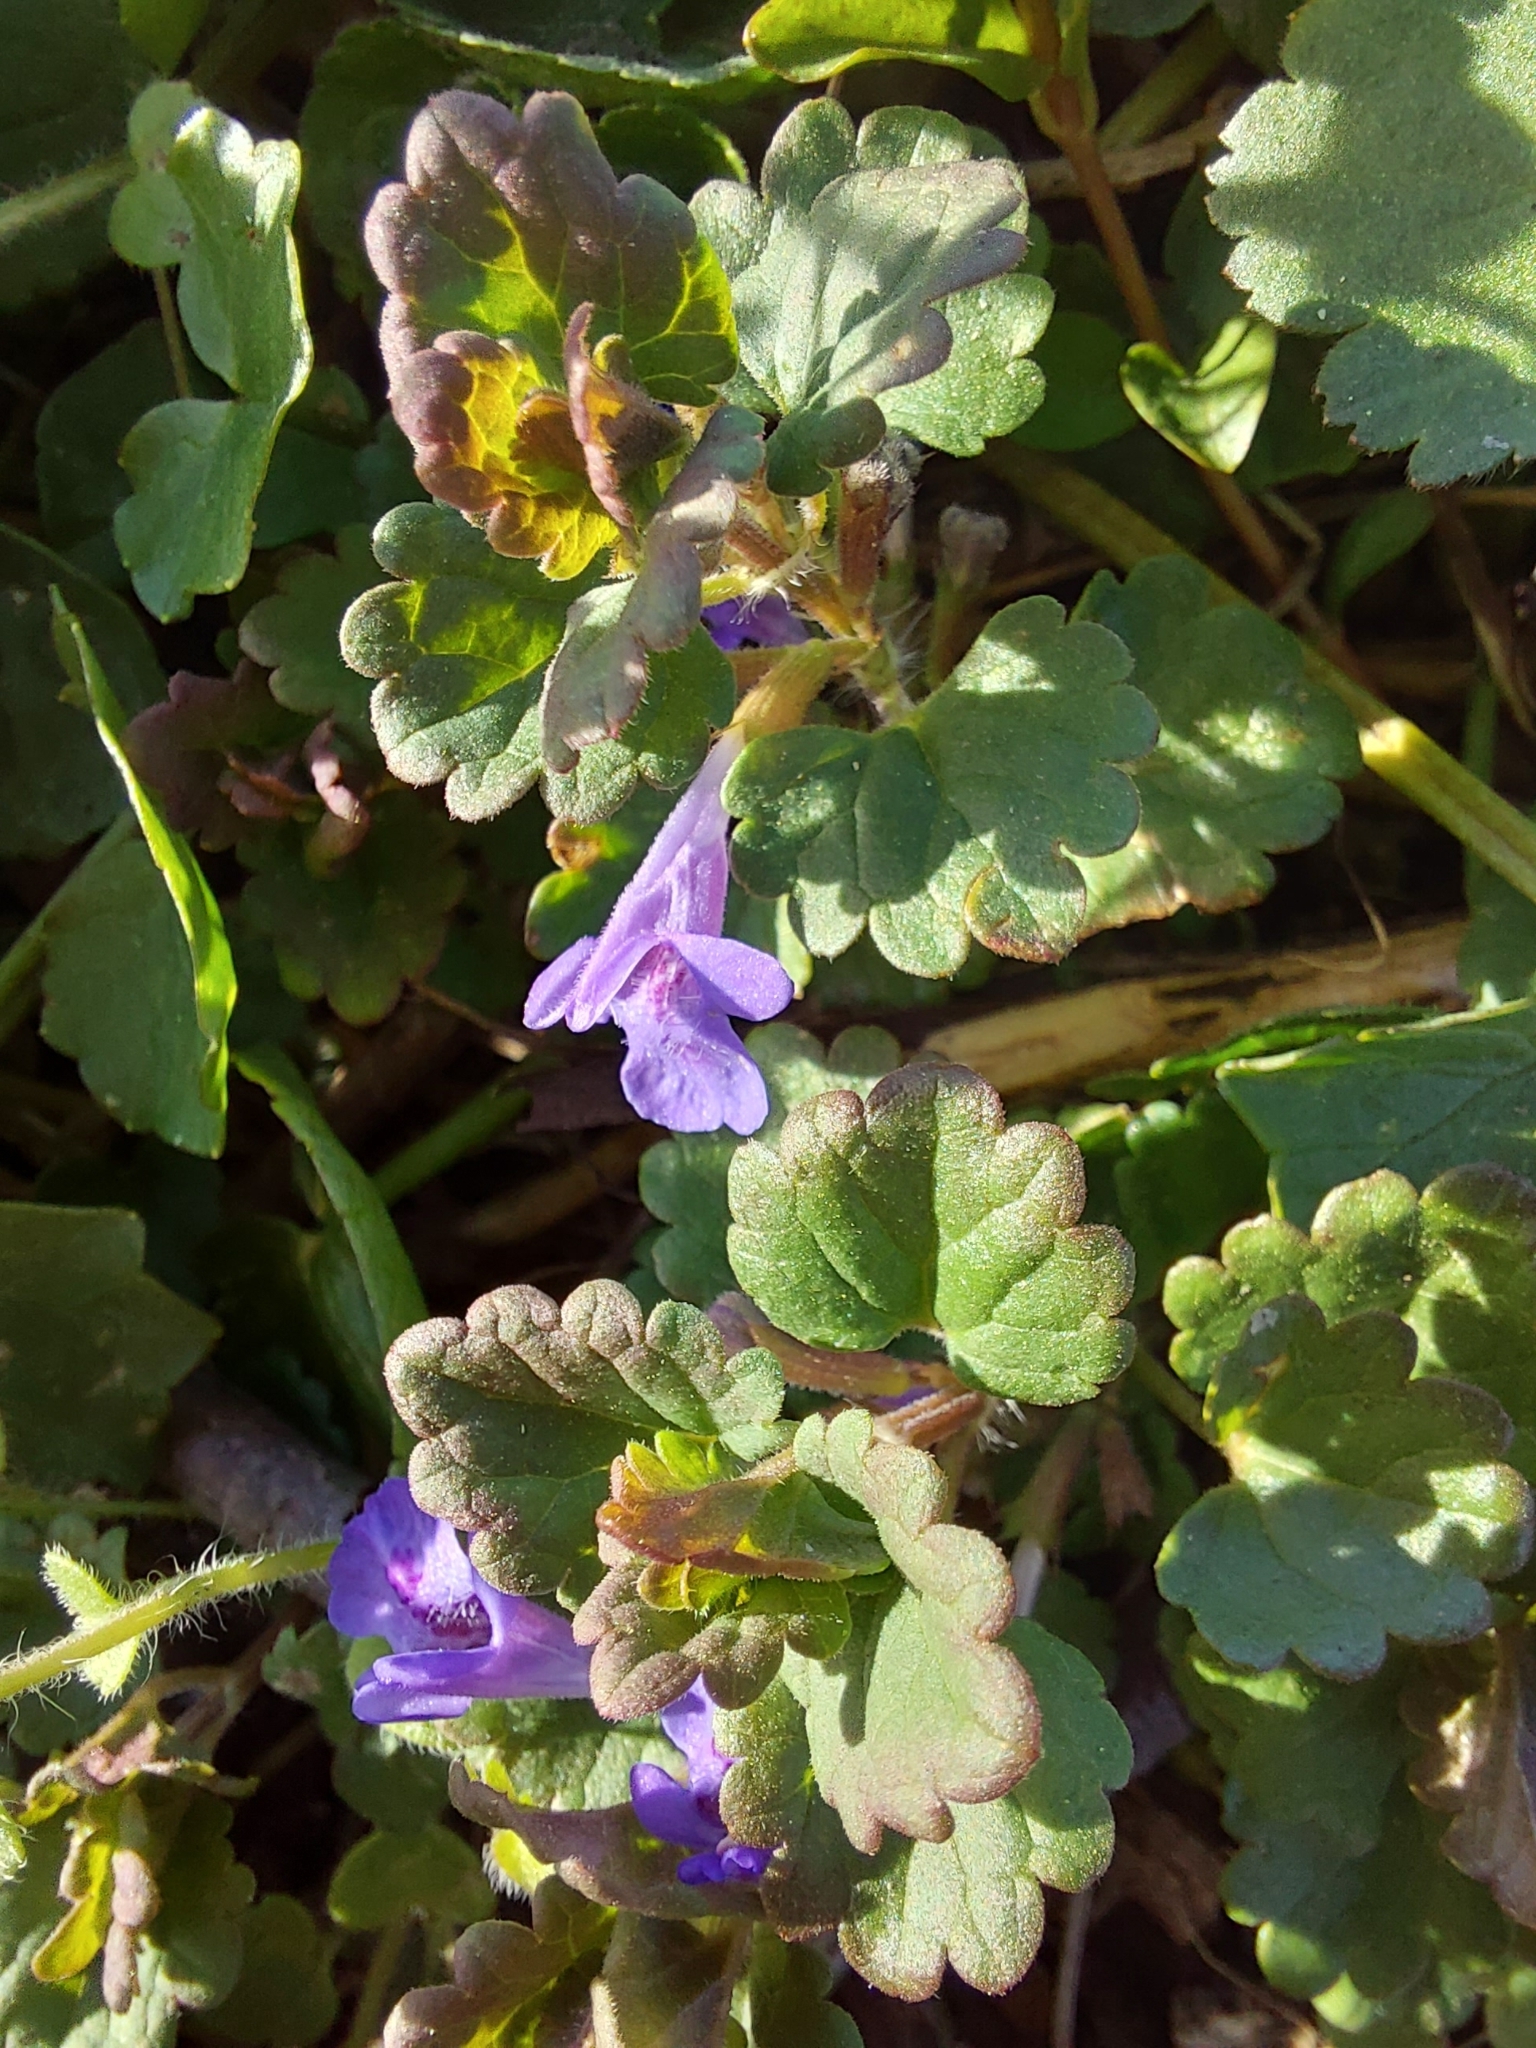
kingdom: Plantae
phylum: Tracheophyta
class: Magnoliopsida
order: Lamiales
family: Lamiaceae
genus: Glechoma
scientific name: Glechoma hederacea
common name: Ground ivy
